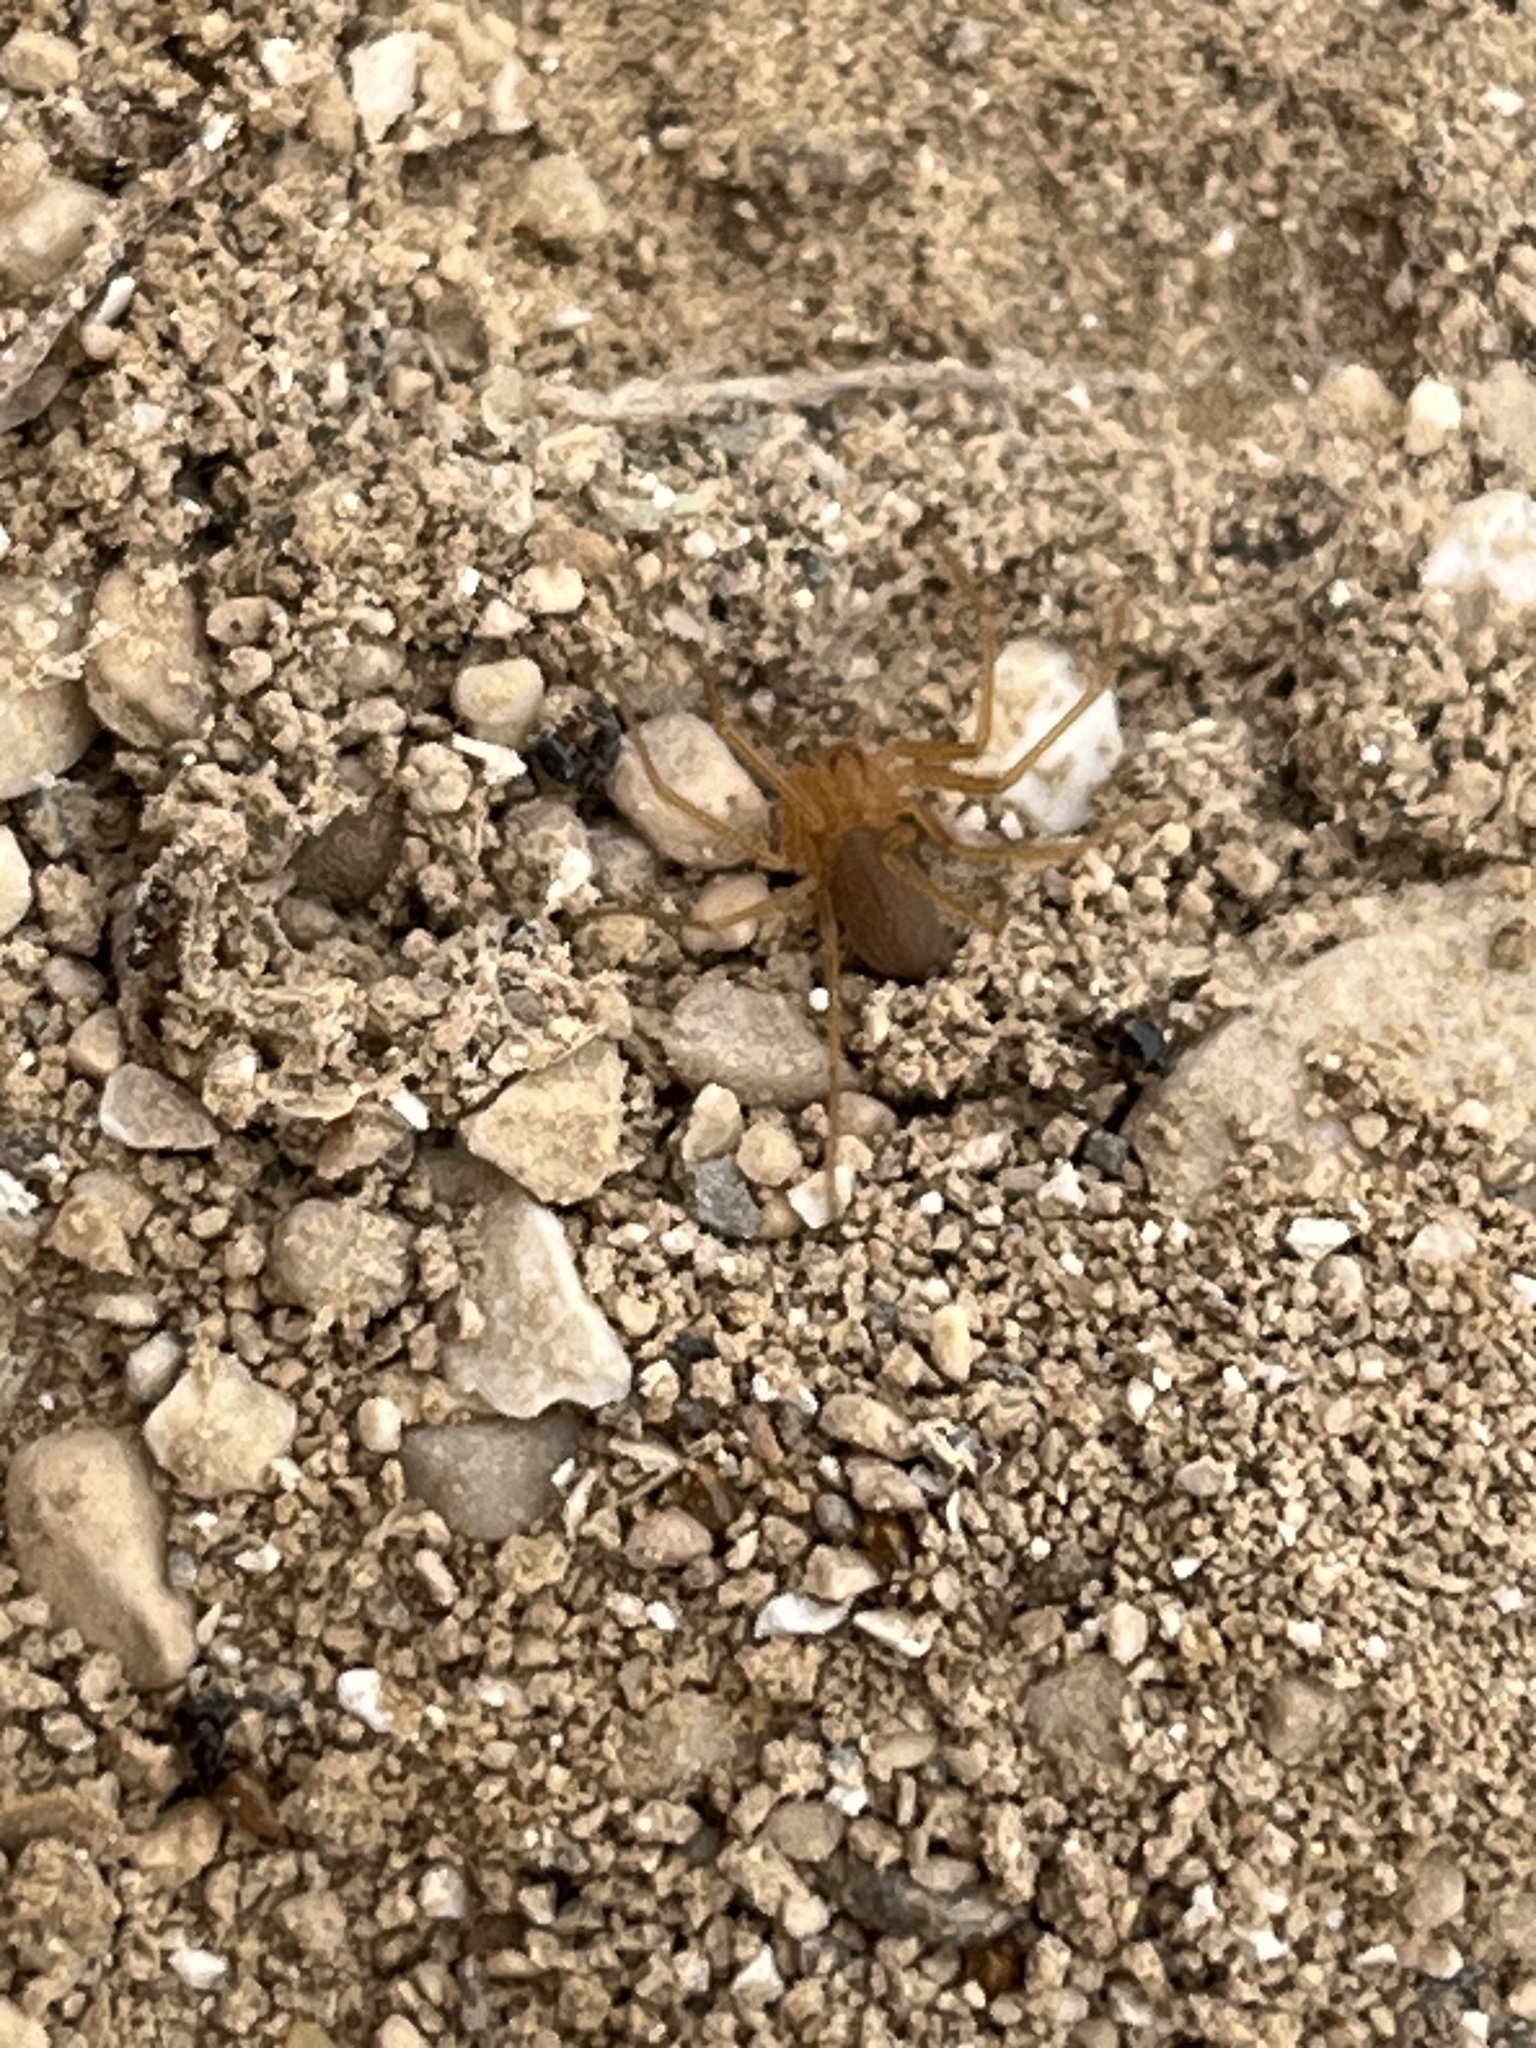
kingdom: Animalia
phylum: Arthropoda
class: Arachnida
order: Araneae
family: Sicariidae
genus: Loxosceles
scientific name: Loxosceles rufescens
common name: Mediterranean recluse spider
